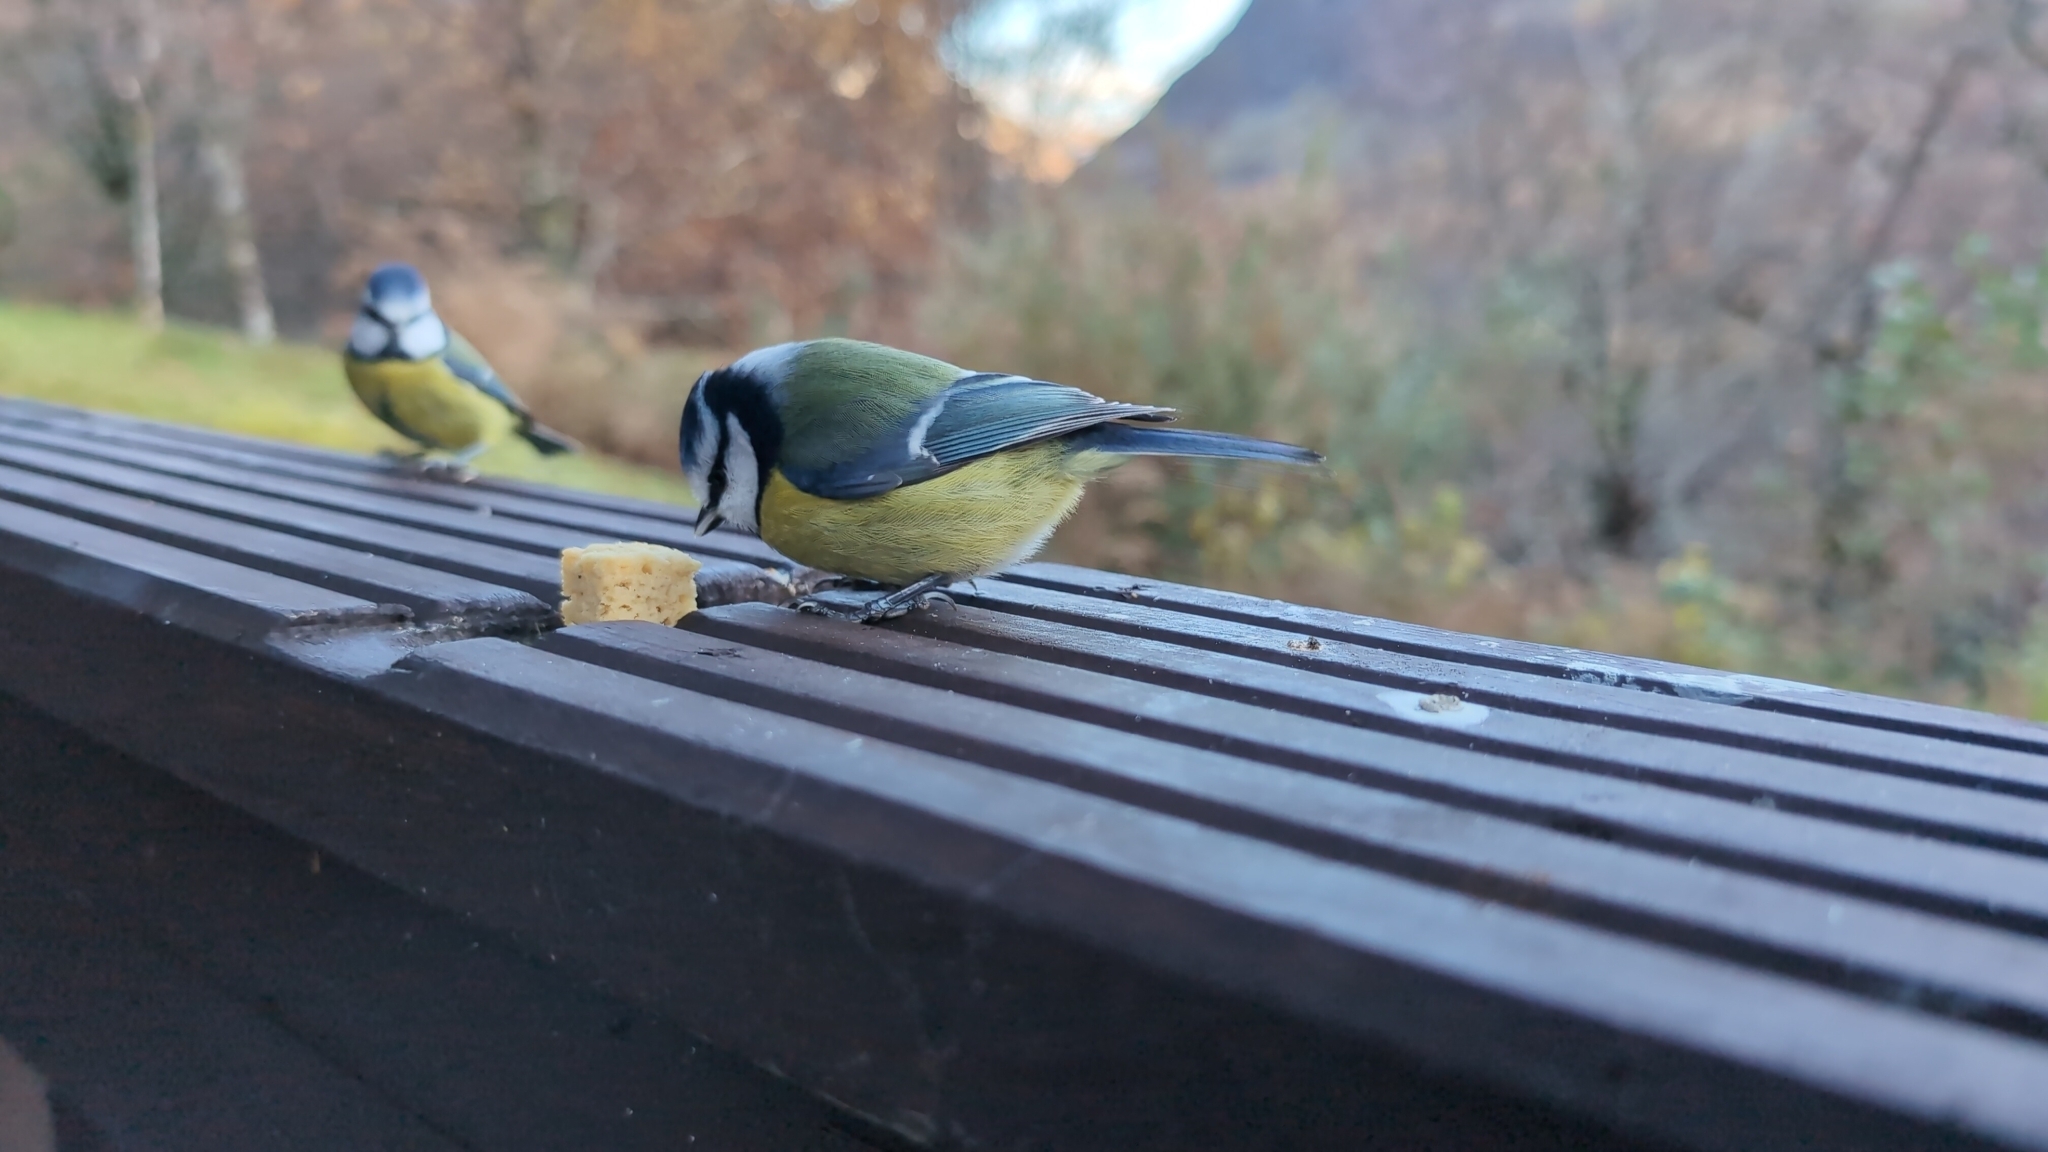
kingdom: Animalia
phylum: Chordata
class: Aves
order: Passeriformes
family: Paridae
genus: Cyanistes
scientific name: Cyanistes caeruleus
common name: Eurasian blue tit
